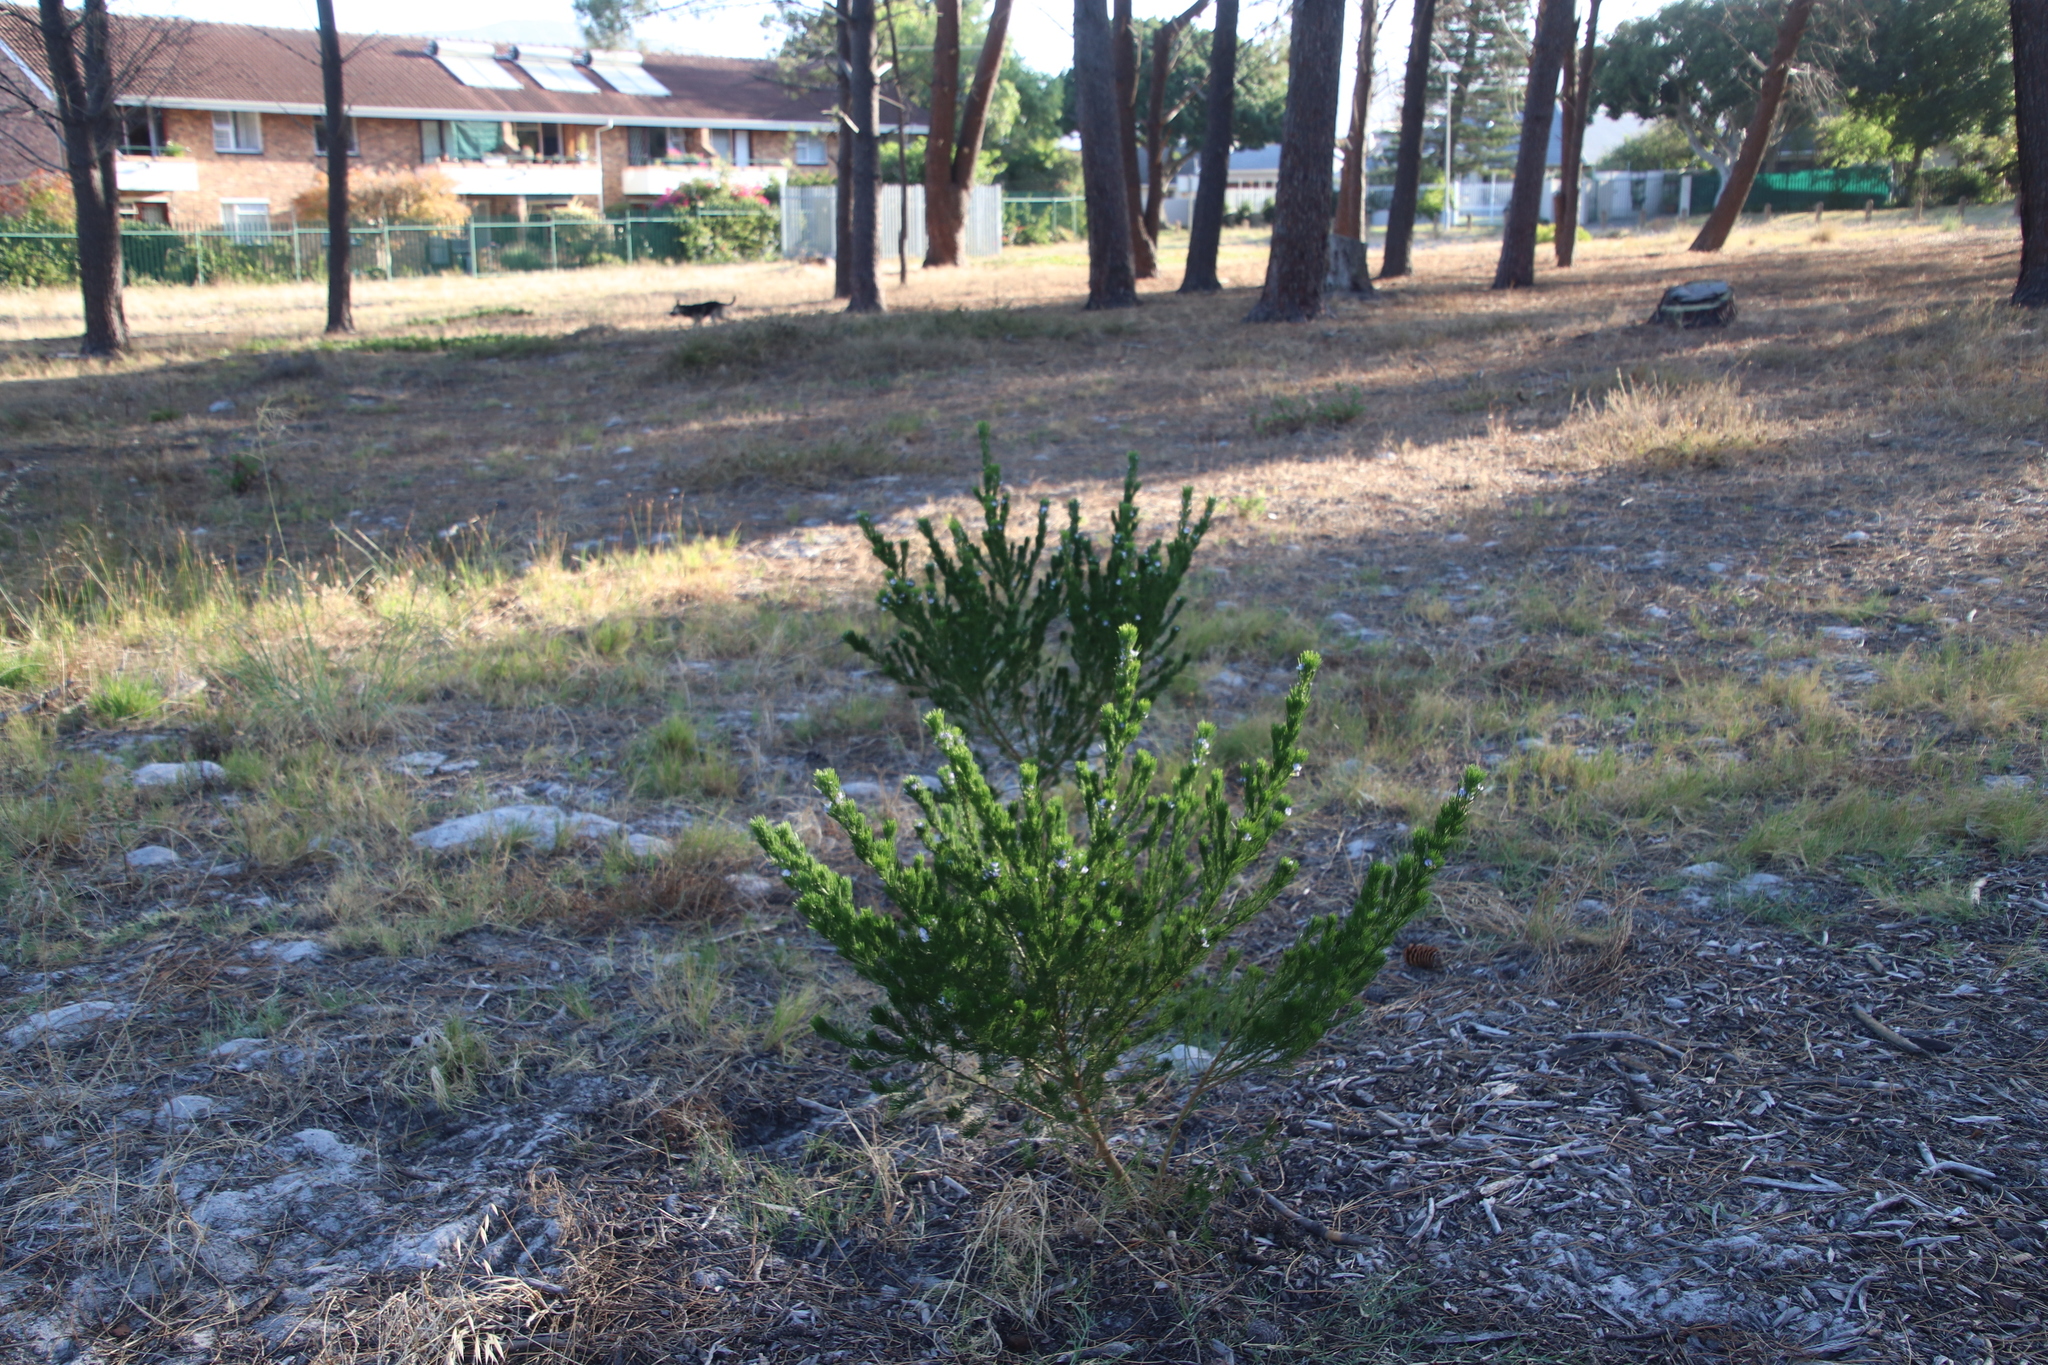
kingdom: Plantae
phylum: Tracheophyta
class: Magnoliopsida
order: Fabales
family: Fabaceae
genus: Psoralea
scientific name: Psoralea pinnata
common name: African scurfpea
